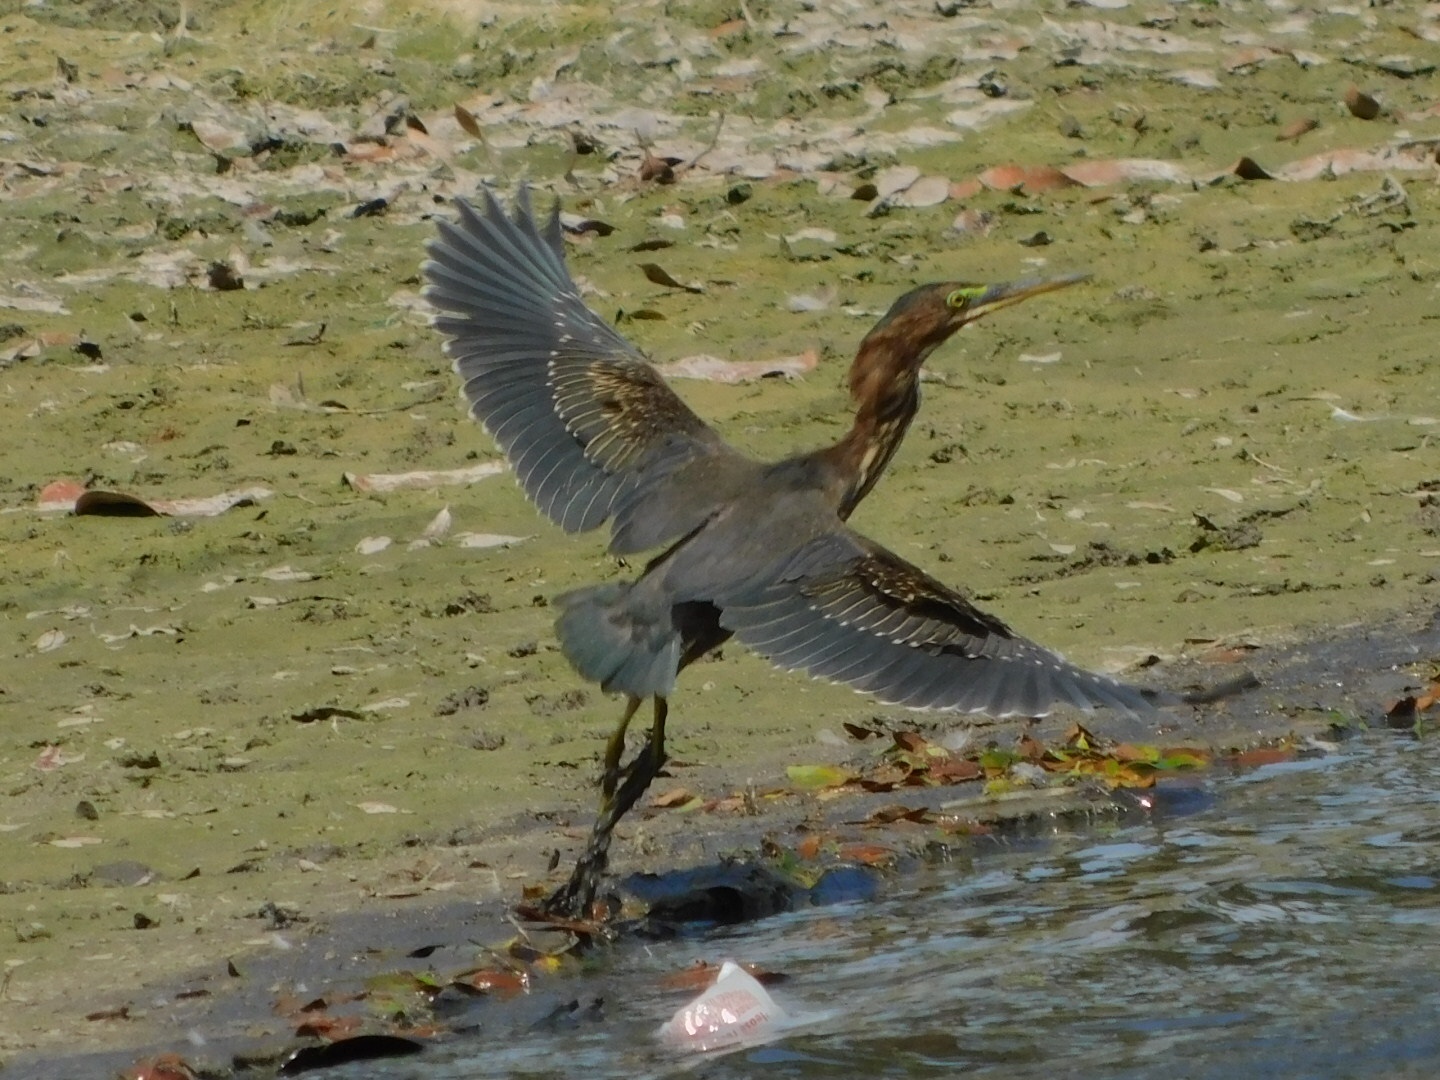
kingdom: Animalia
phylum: Chordata
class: Aves
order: Pelecaniformes
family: Ardeidae
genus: Butorides
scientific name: Butorides virescens
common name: Green heron
